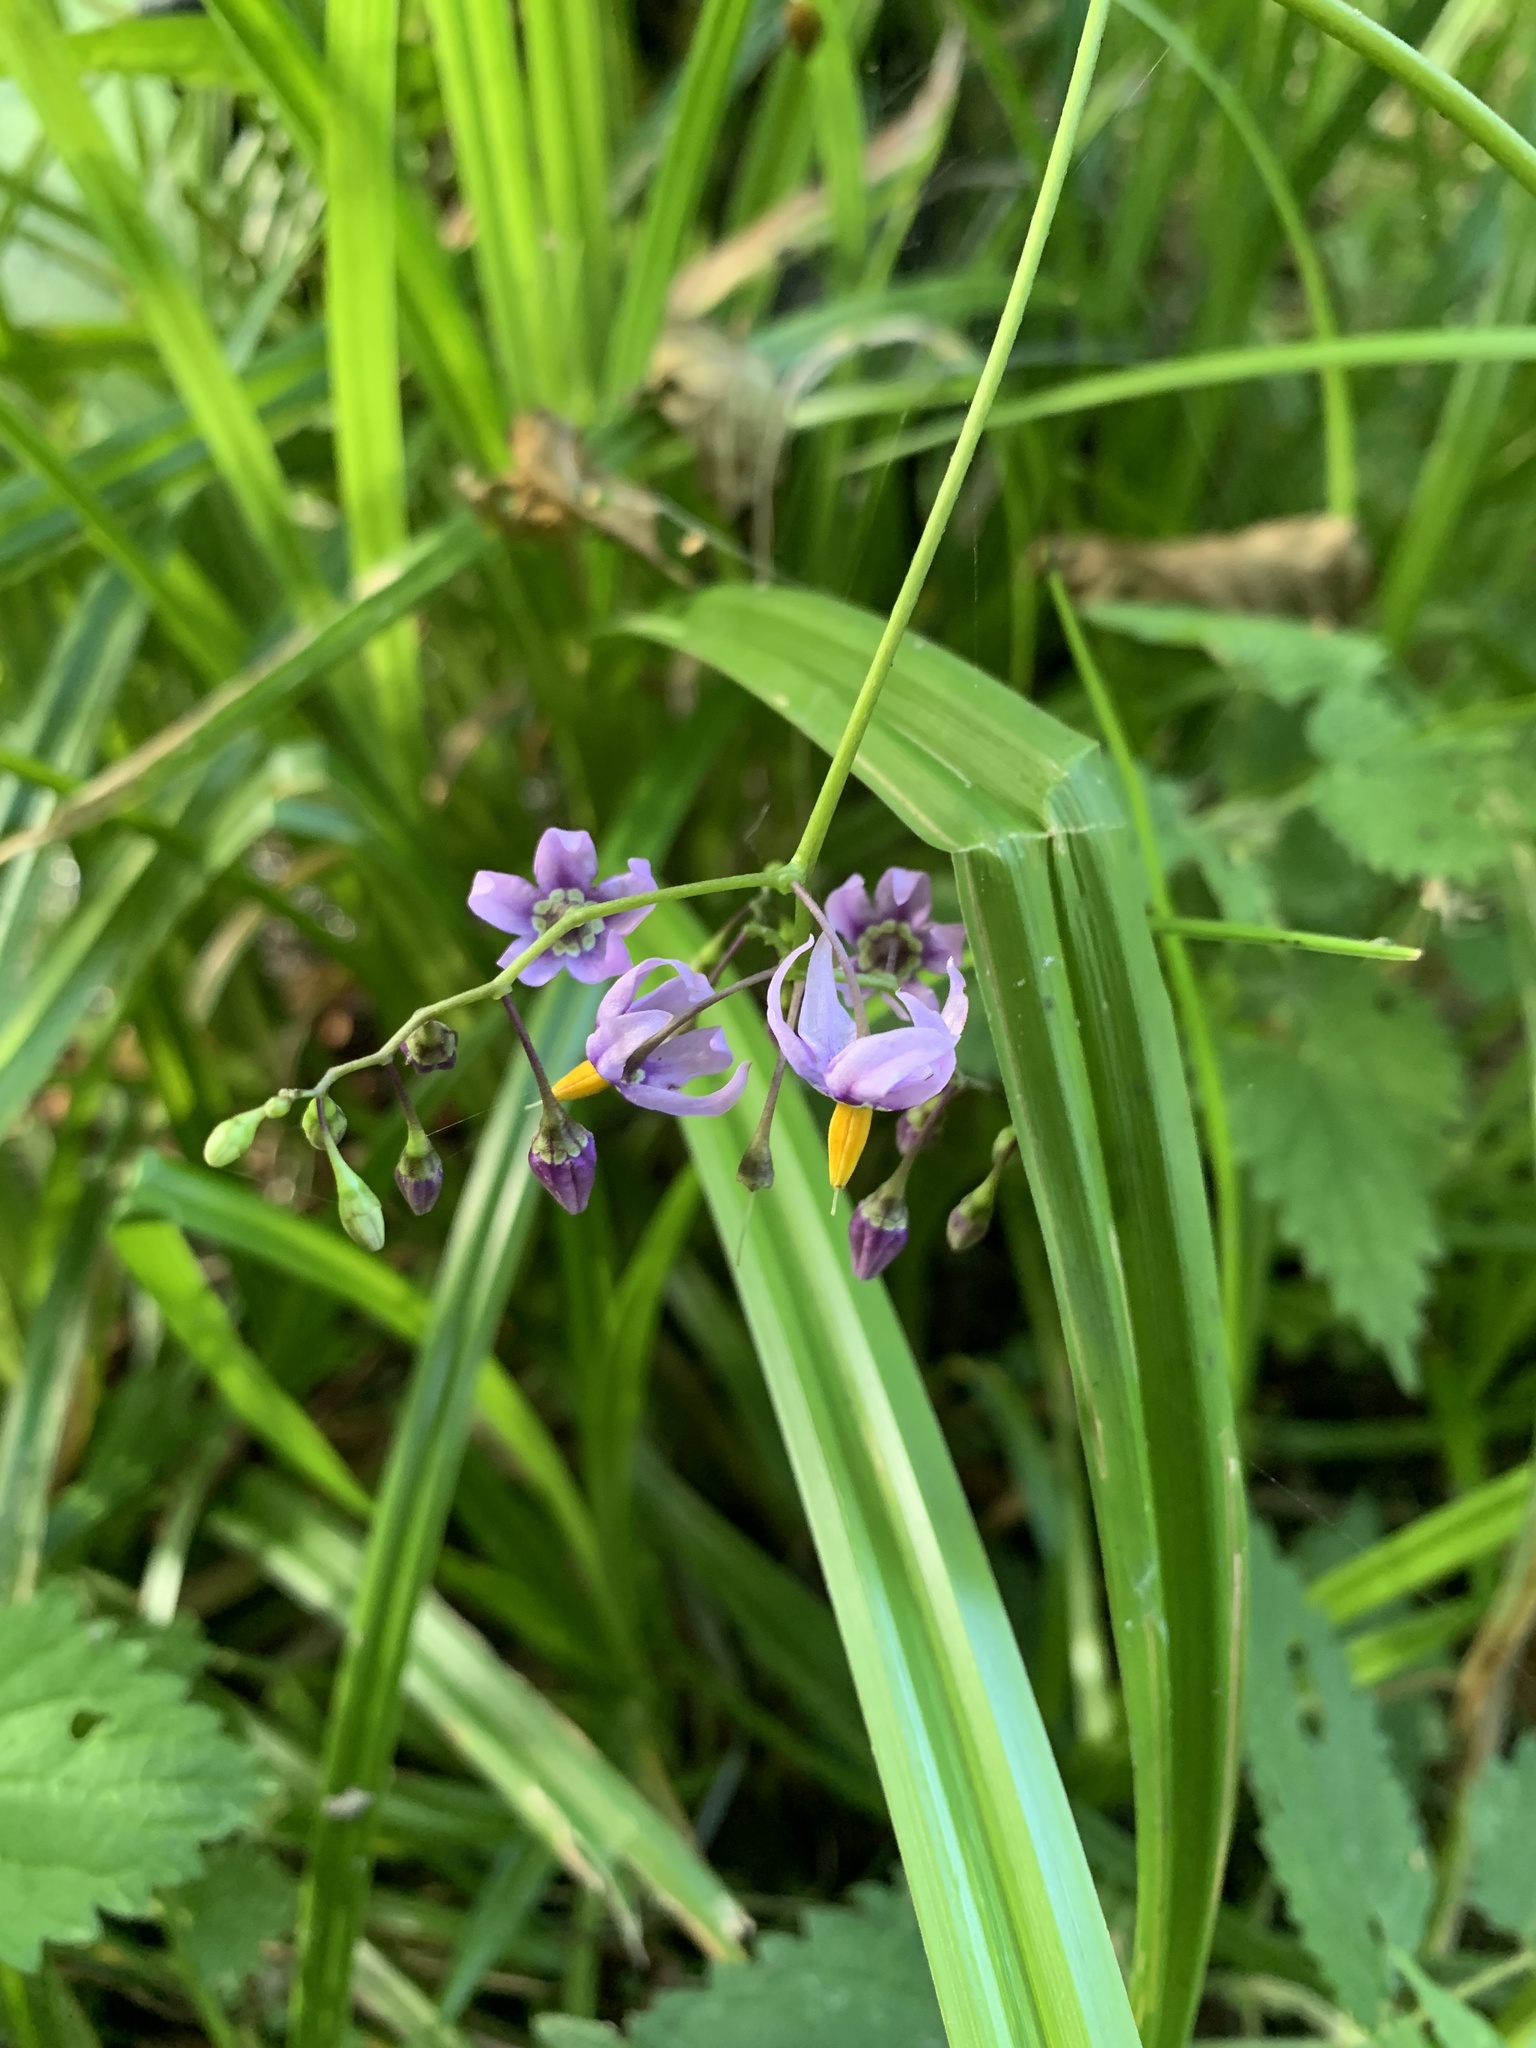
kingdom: Plantae
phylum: Tracheophyta
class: Magnoliopsida
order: Solanales
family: Solanaceae
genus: Solanum
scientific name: Solanum dulcamara
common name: Climbing nightshade
